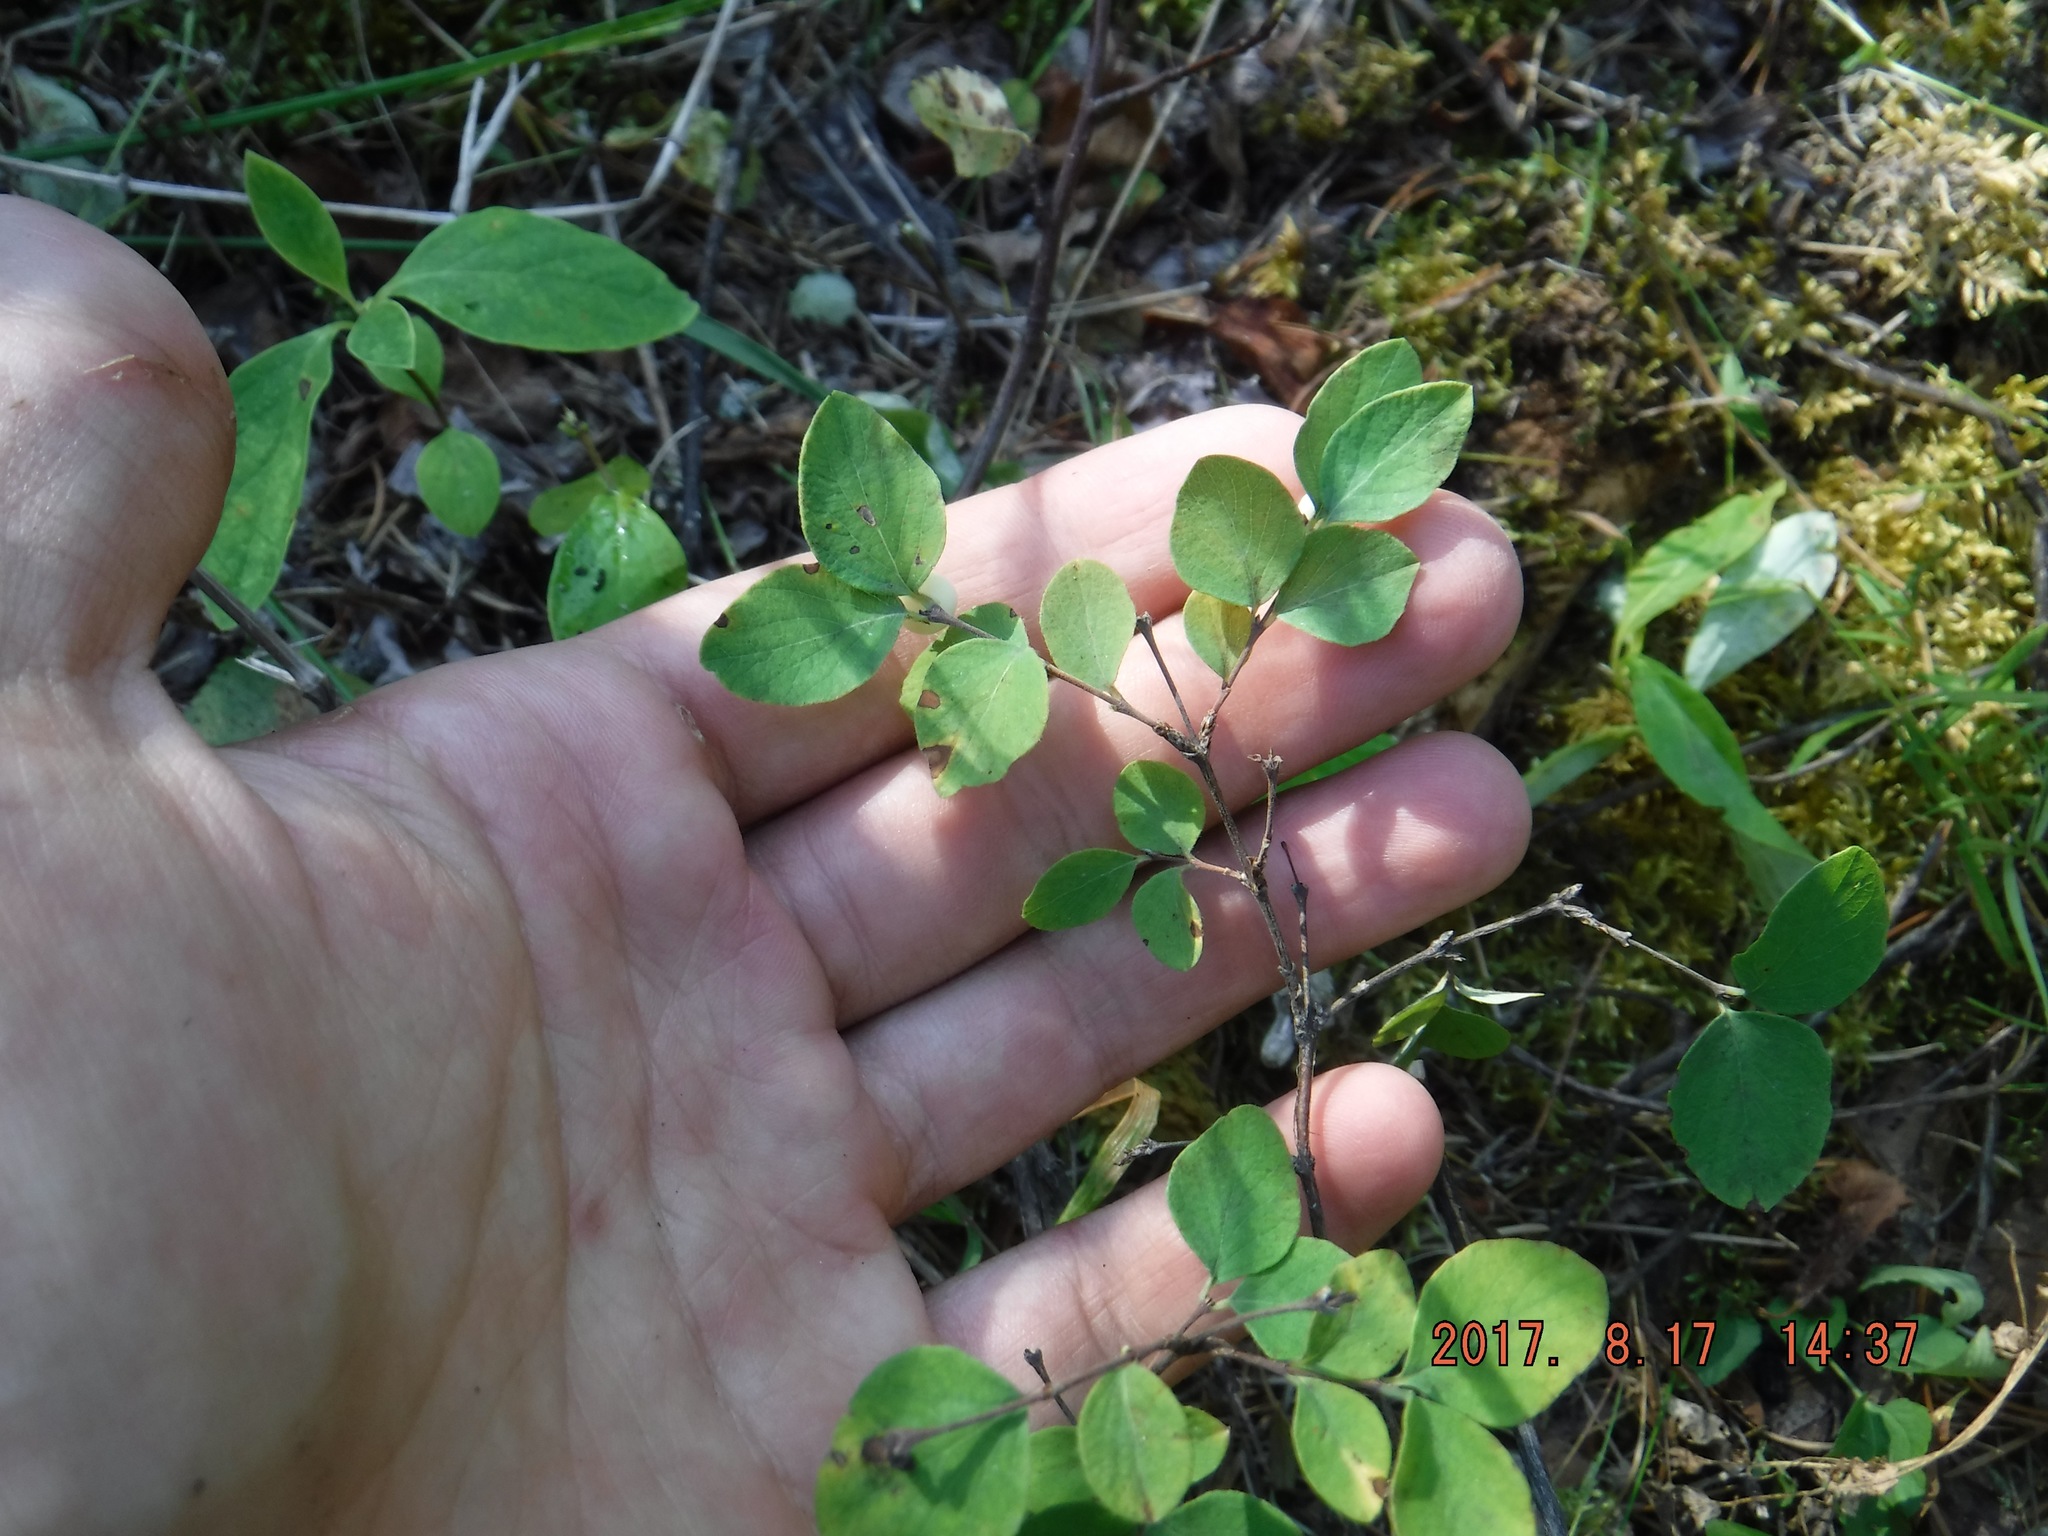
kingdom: Plantae
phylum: Tracheophyta
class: Magnoliopsida
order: Dipsacales
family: Caprifoliaceae
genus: Symphoricarpos
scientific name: Symphoricarpos albus
